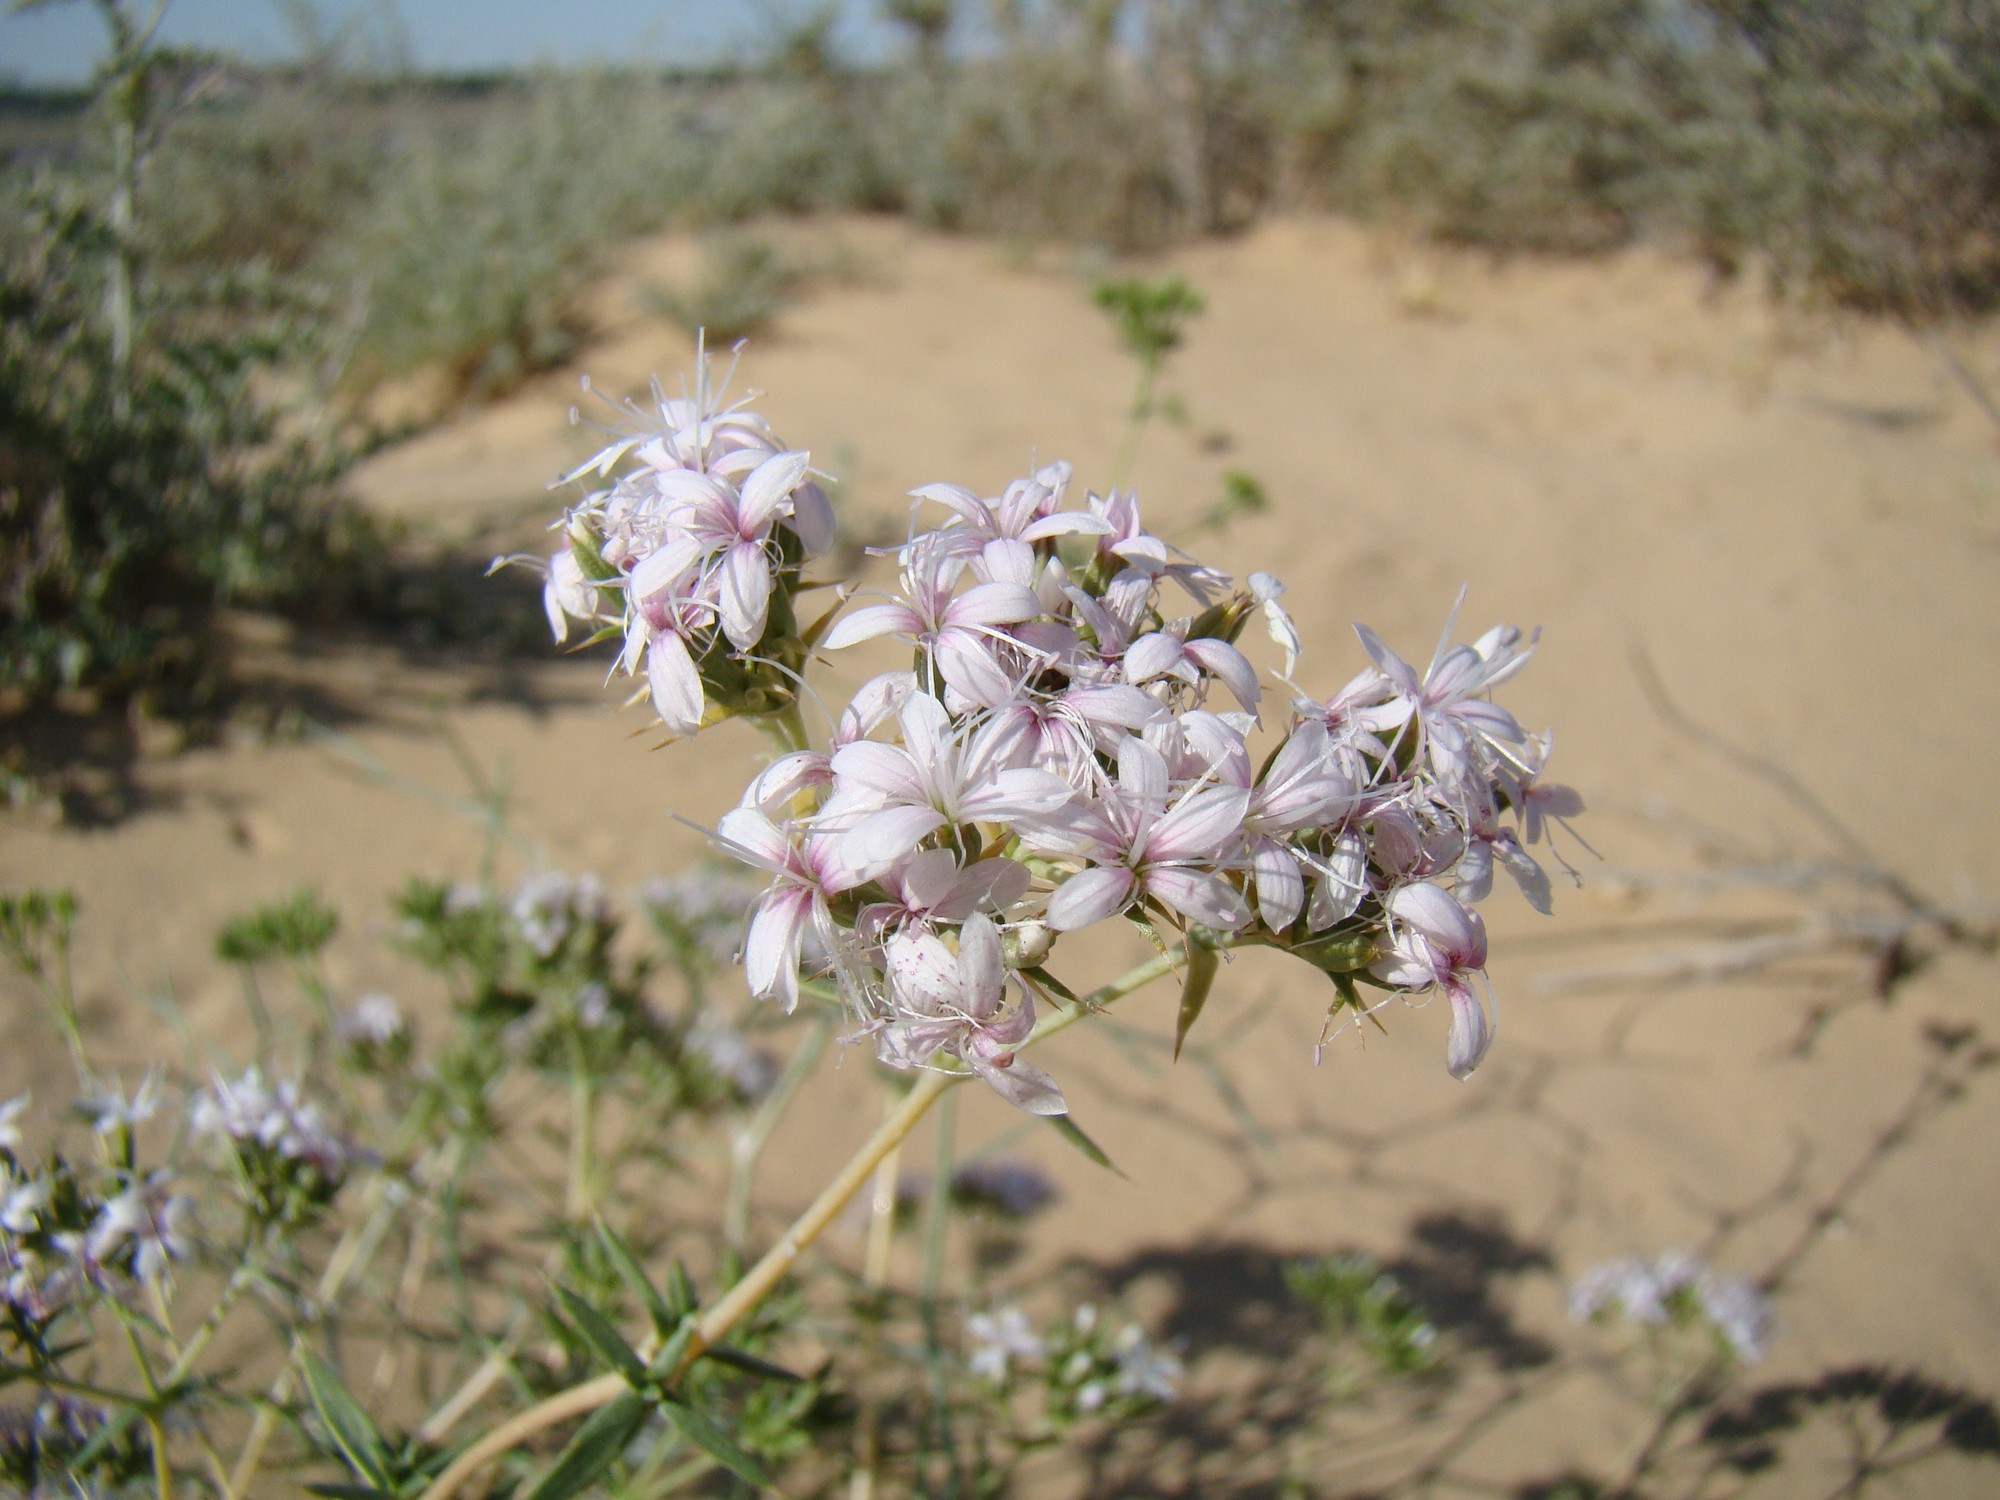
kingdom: Plantae
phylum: Tracheophyta
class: Magnoliopsida
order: Caryophyllales
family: Caryophyllaceae
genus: Acanthophyllum
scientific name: Acanthophyllum elatius
